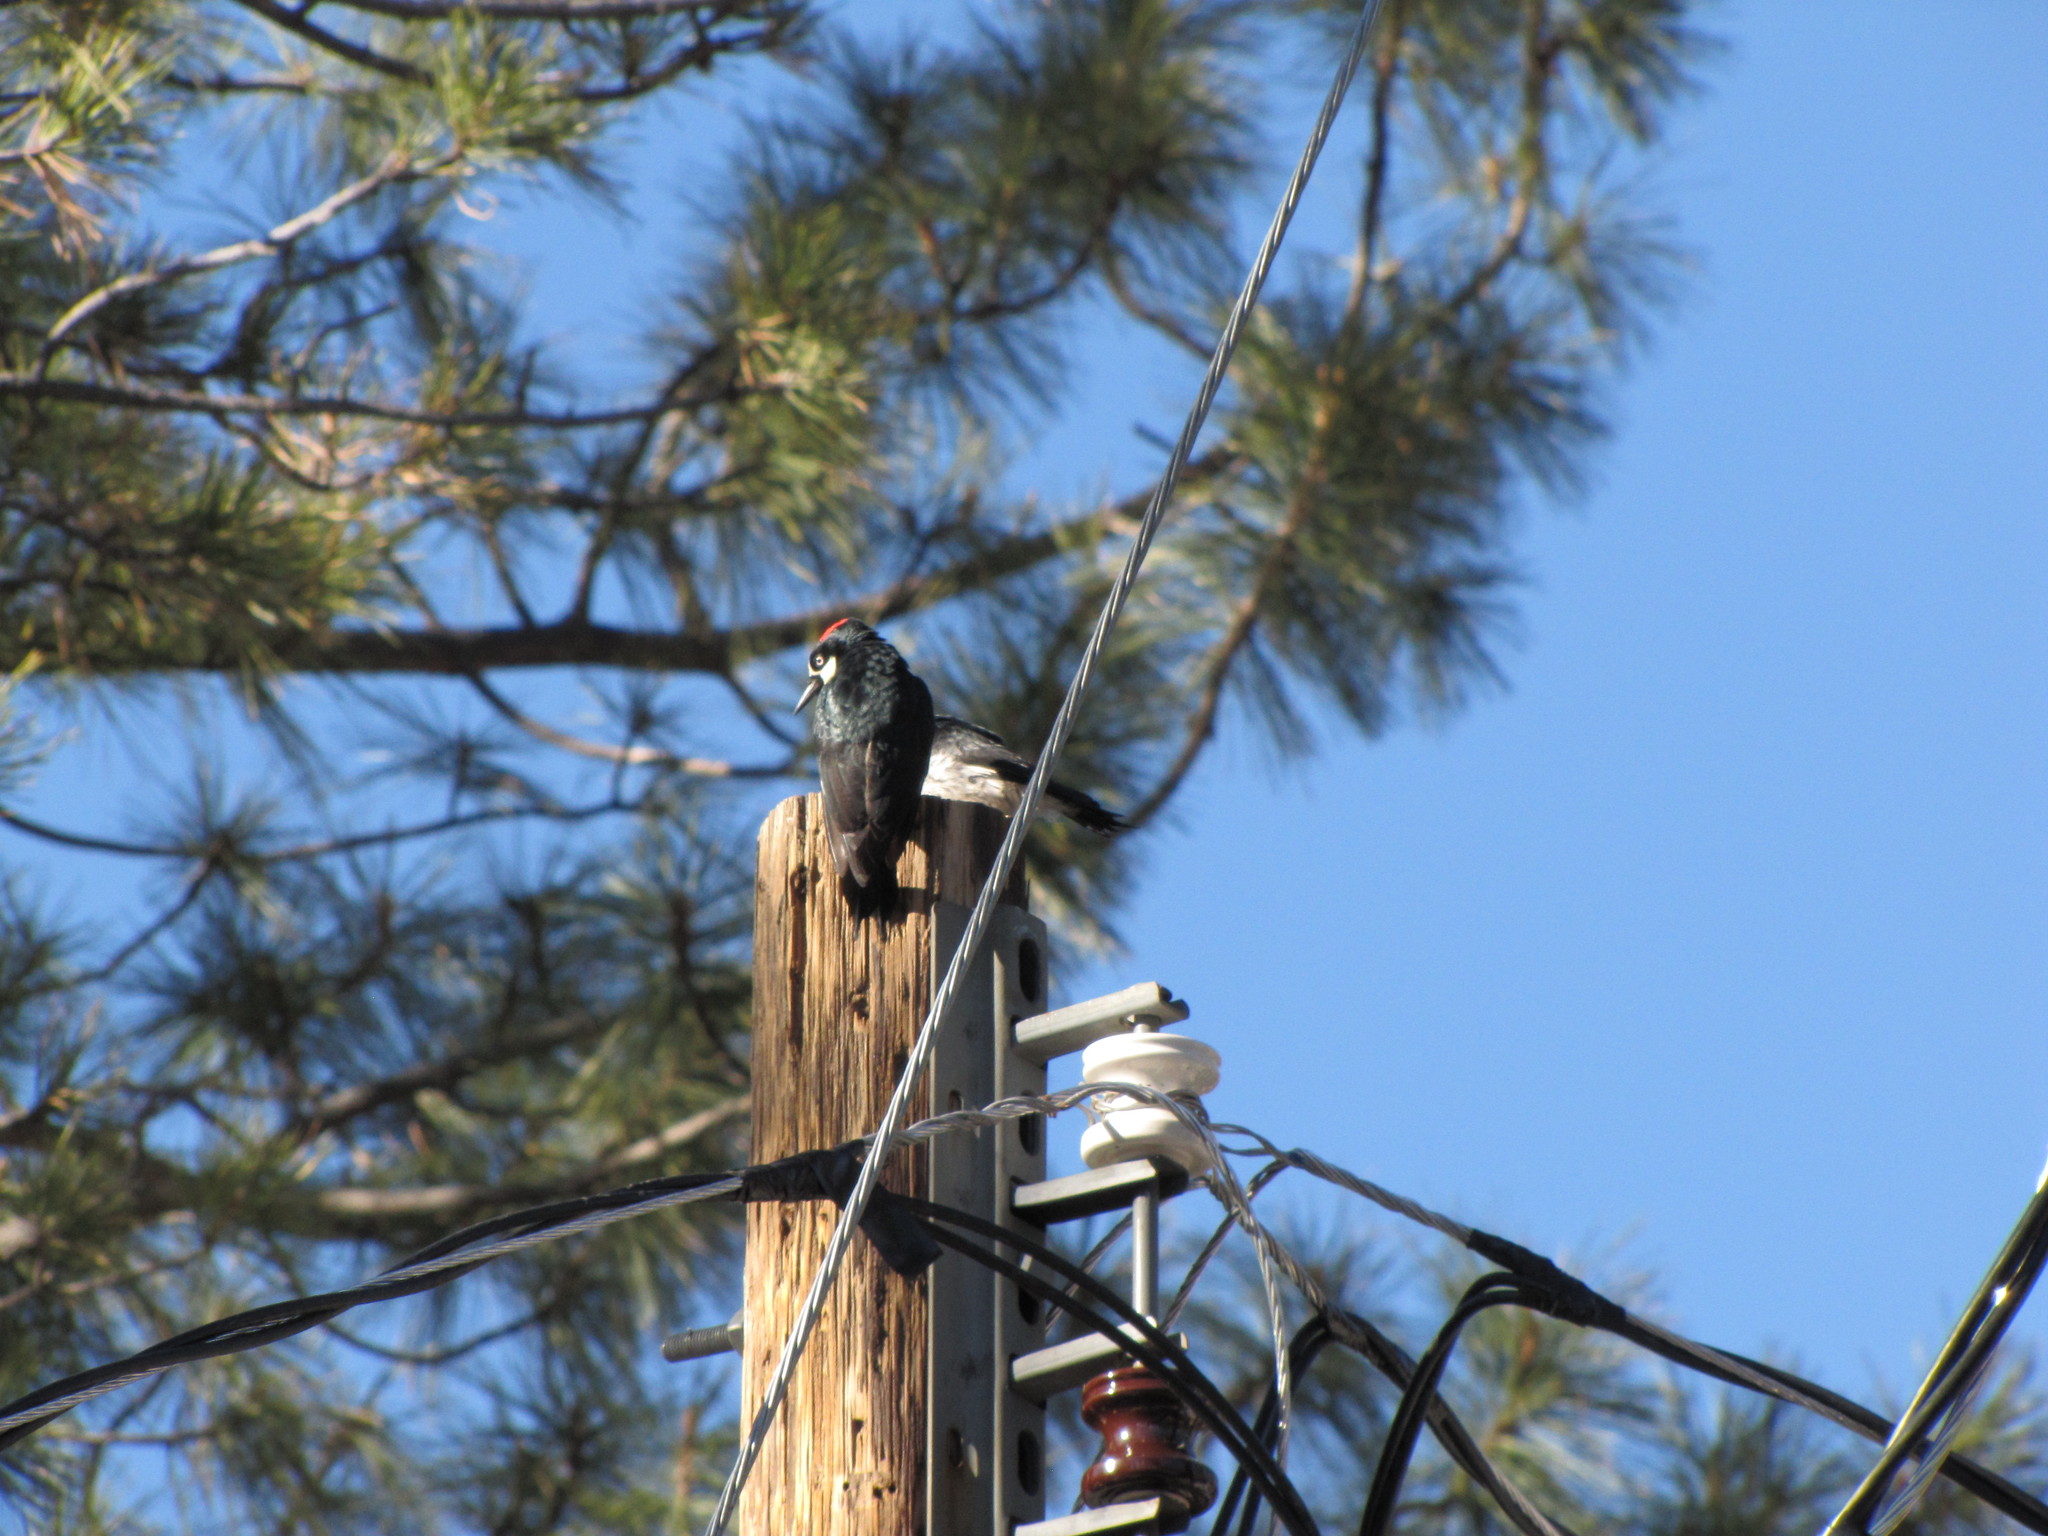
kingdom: Animalia
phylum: Chordata
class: Aves
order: Piciformes
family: Picidae
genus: Melanerpes
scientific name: Melanerpes formicivorus
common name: Acorn woodpecker
